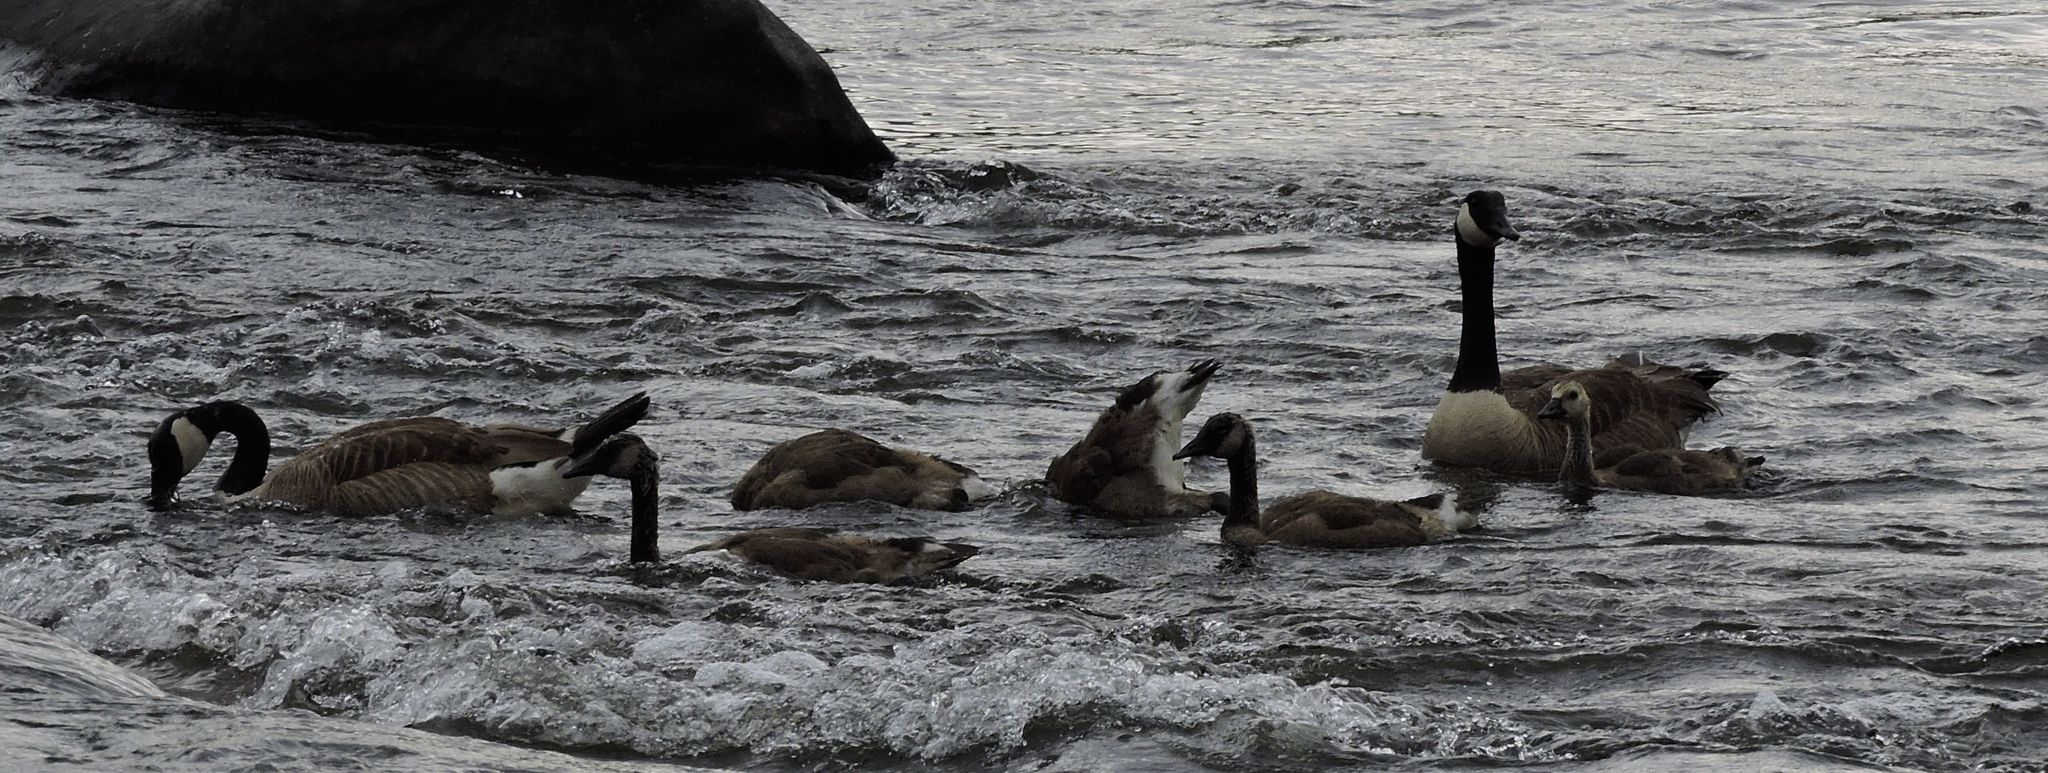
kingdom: Animalia
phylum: Chordata
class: Aves
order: Anseriformes
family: Anatidae
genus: Branta
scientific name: Branta canadensis
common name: Canada goose
